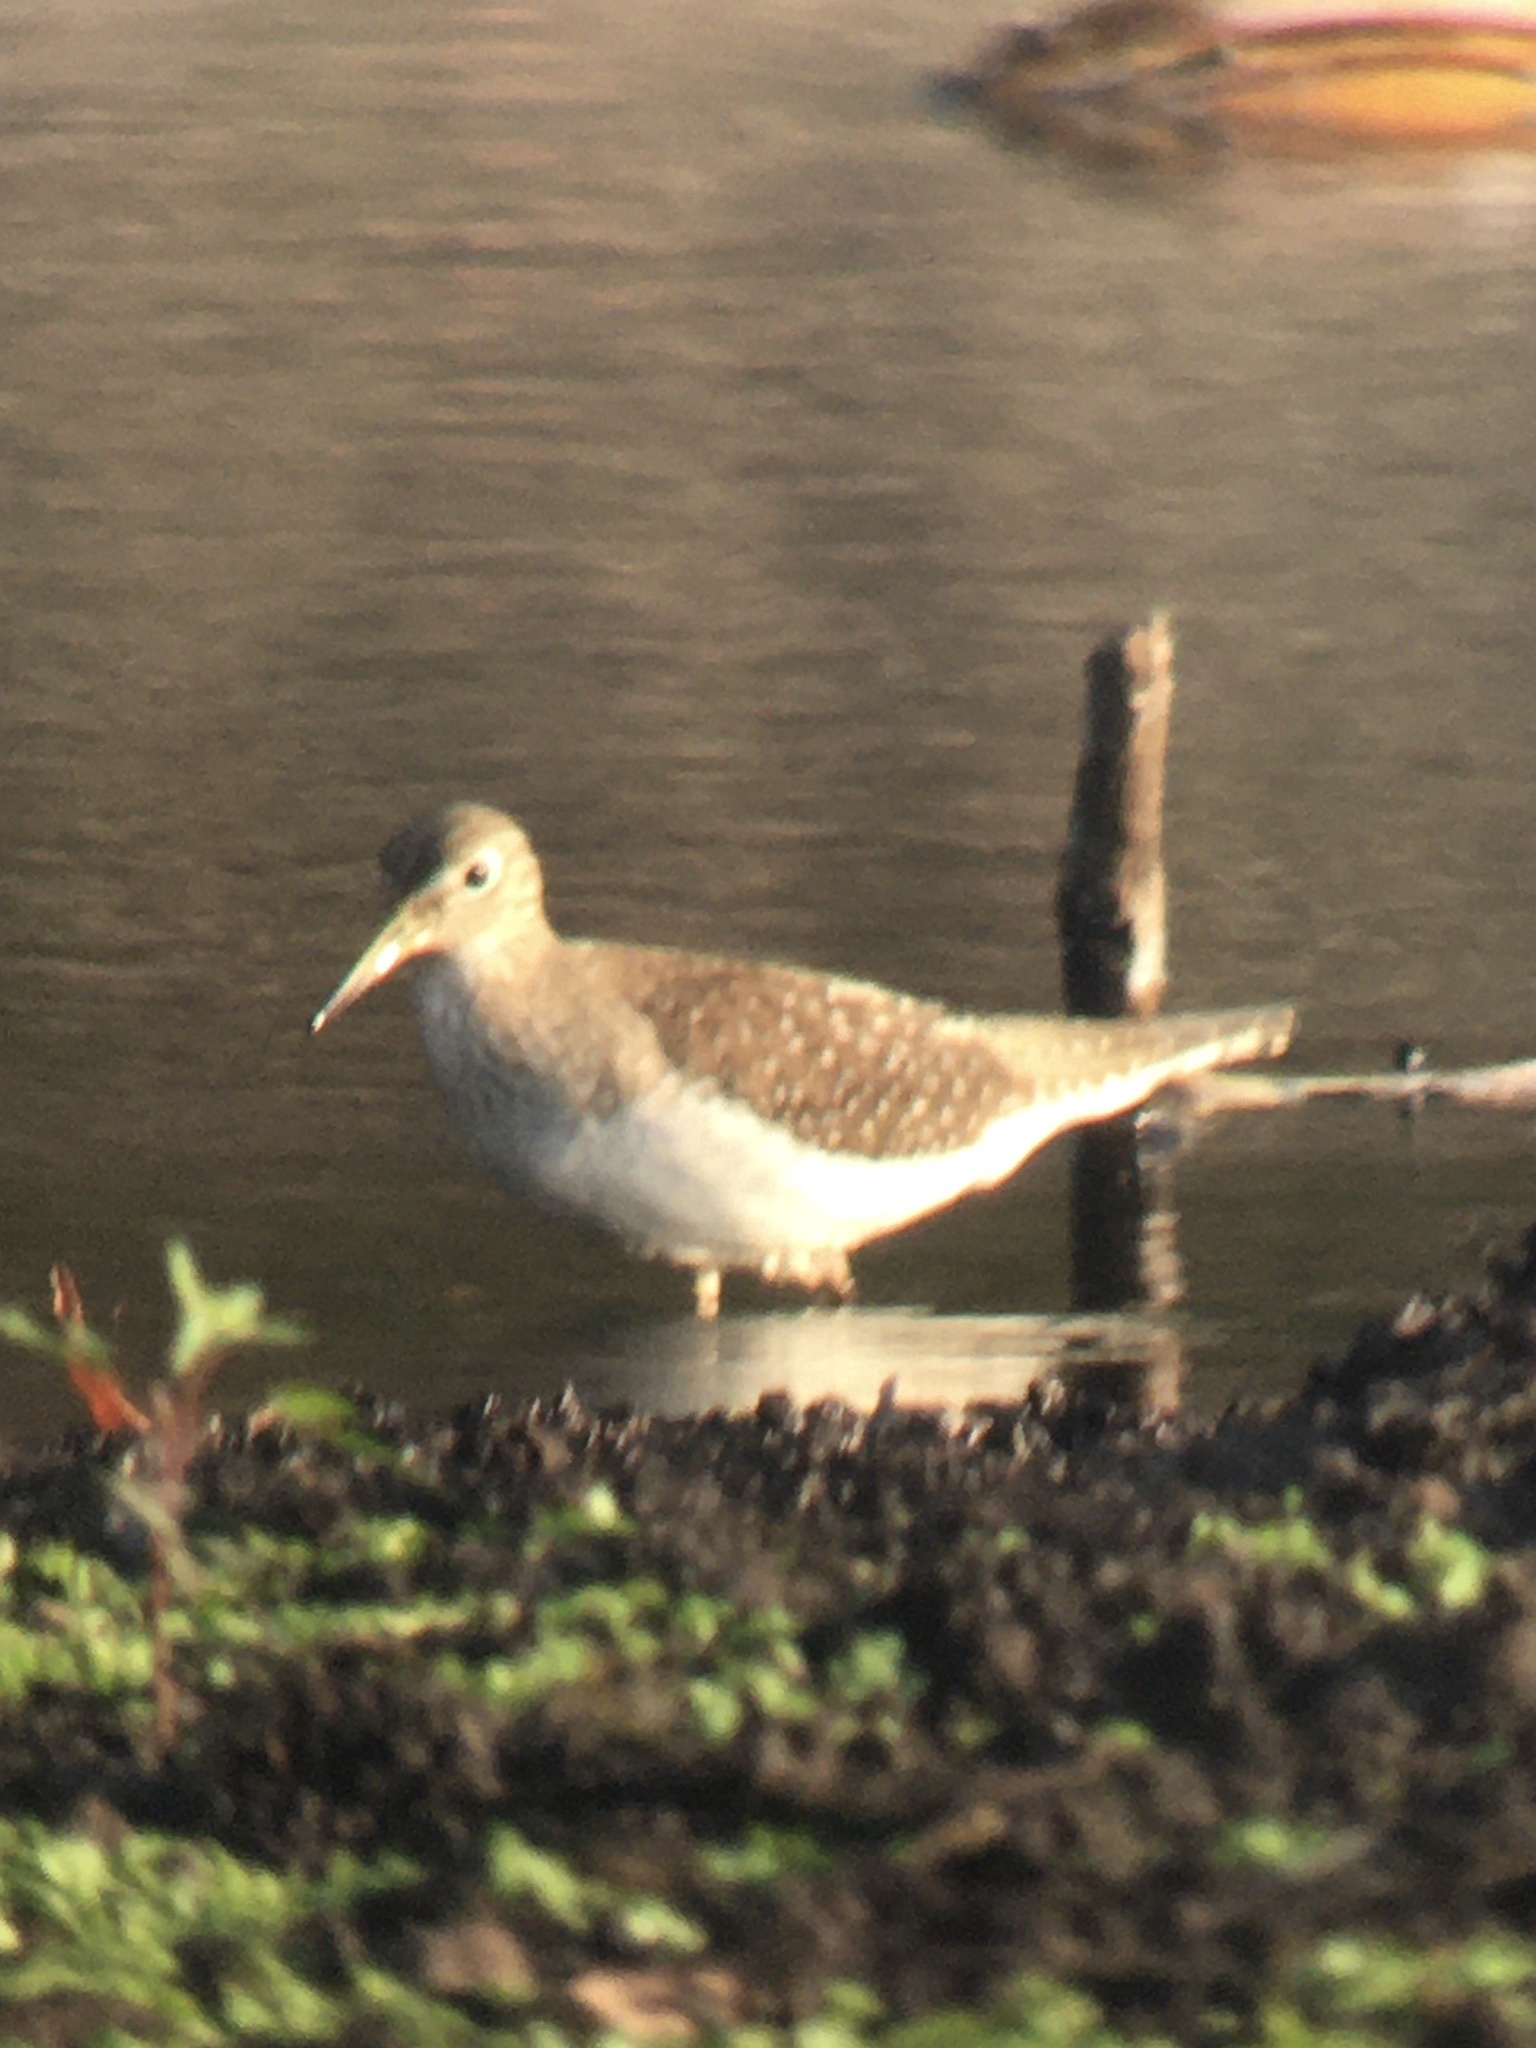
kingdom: Animalia
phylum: Chordata
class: Aves
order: Charadriiformes
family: Scolopacidae
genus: Tringa
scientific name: Tringa solitaria
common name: Solitary sandpiper
